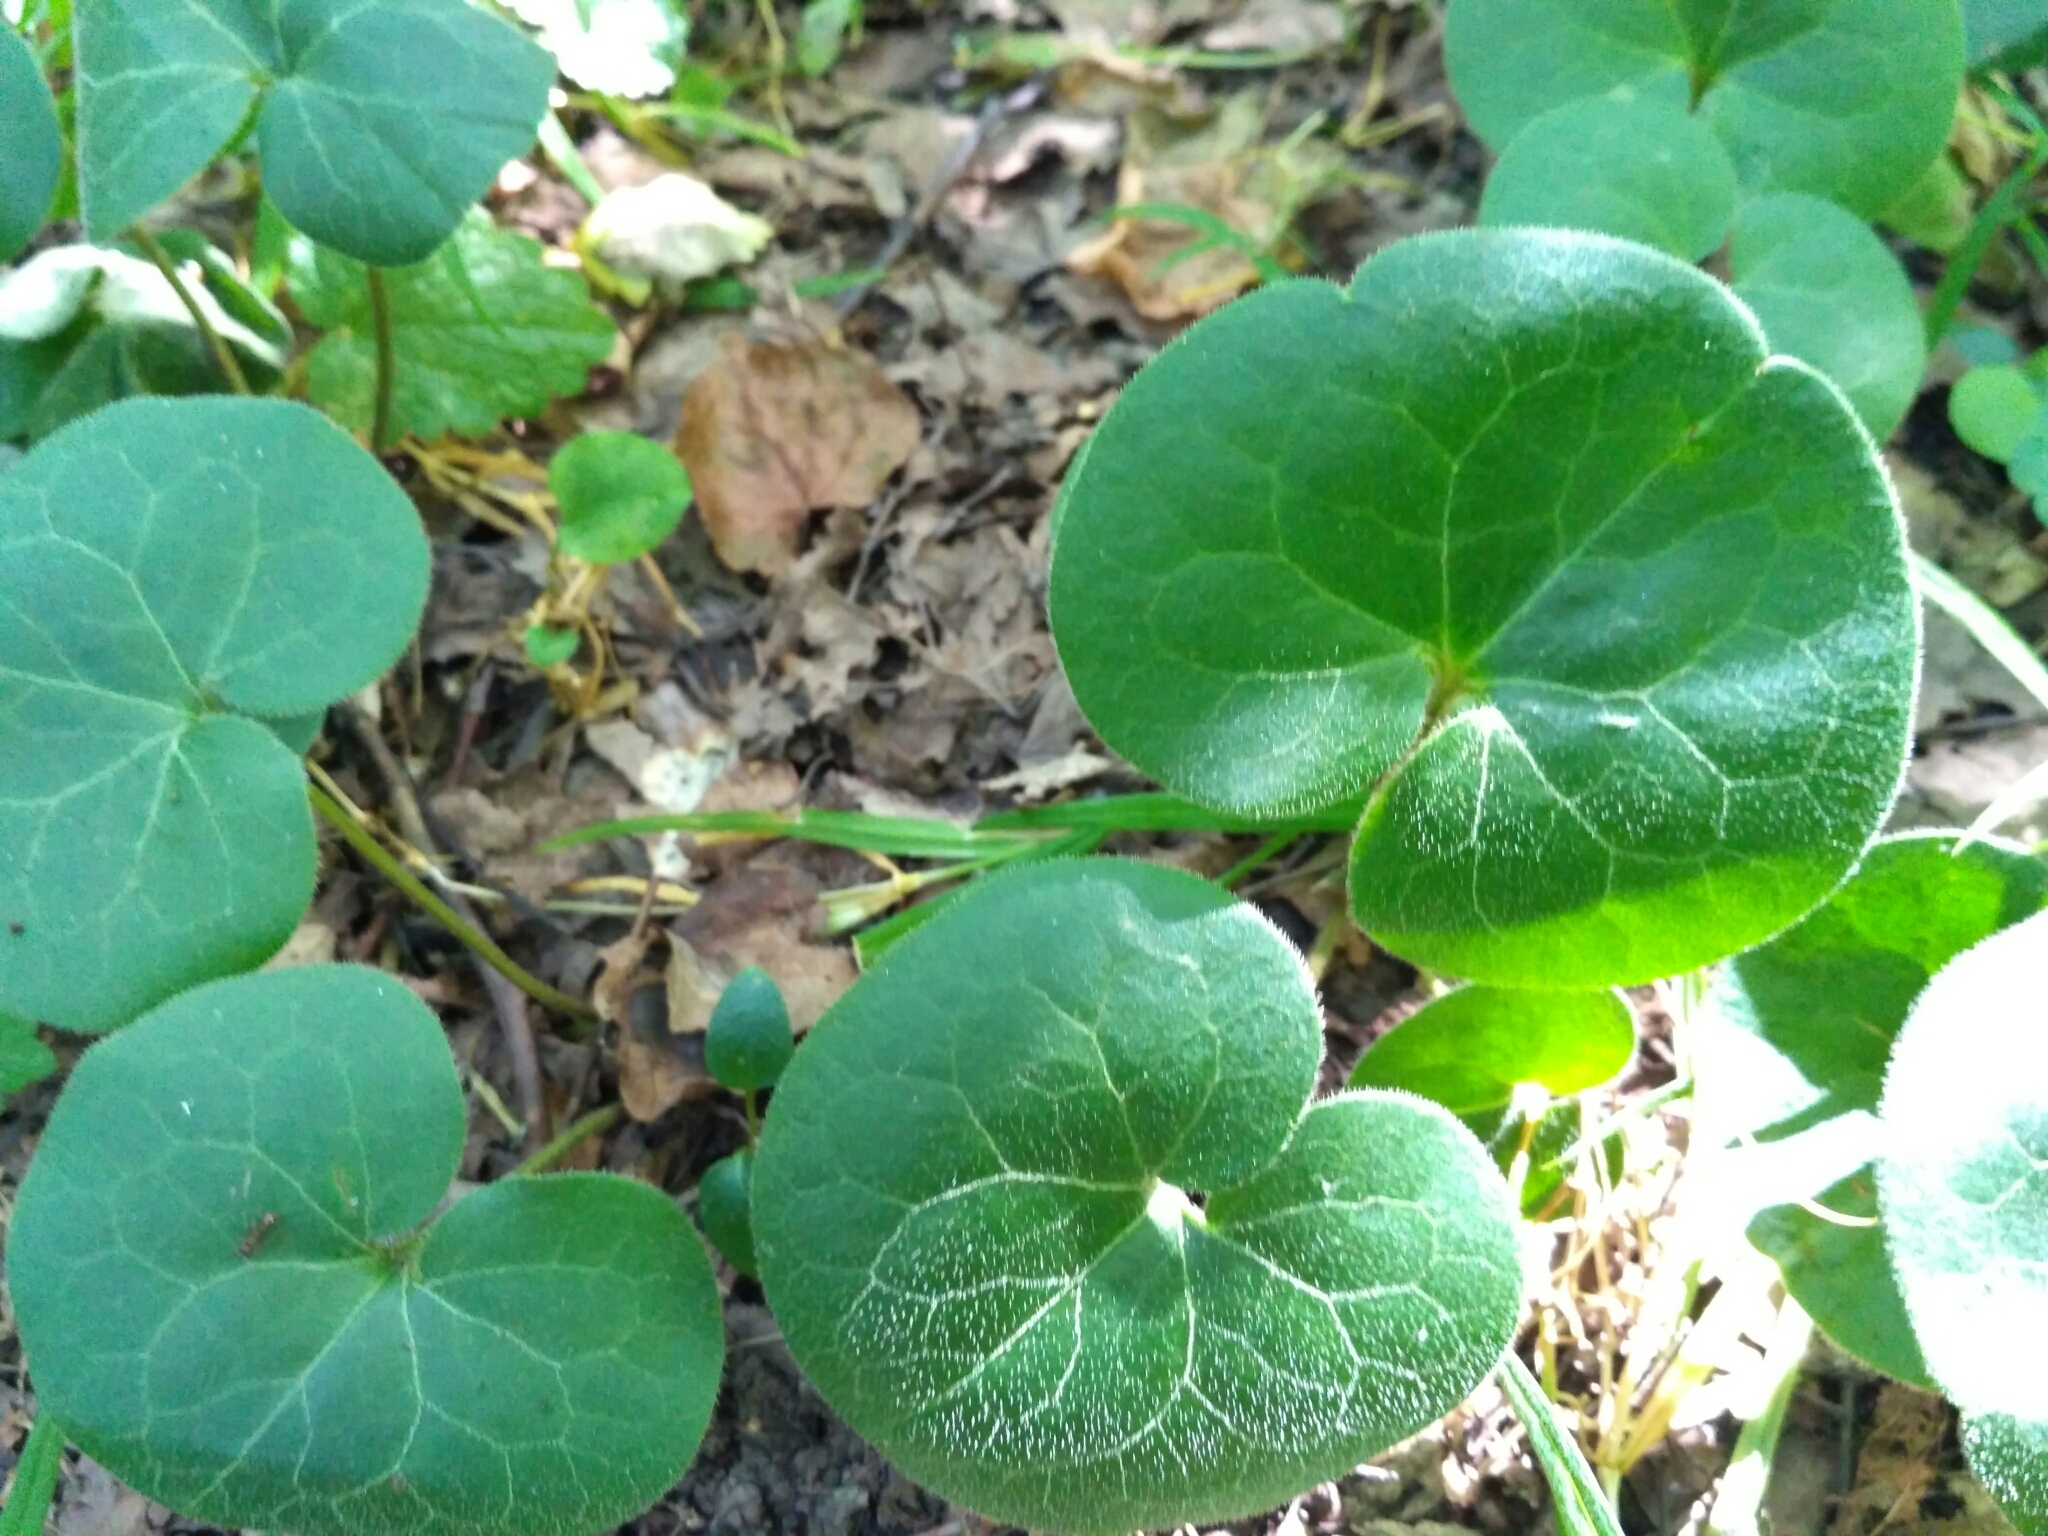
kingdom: Plantae
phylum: Tracheophyta
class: Magnoliopsida
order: Piperales
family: Aristolochiaceae
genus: Asarum
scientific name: Asarum europaeum
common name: Asarabacca
